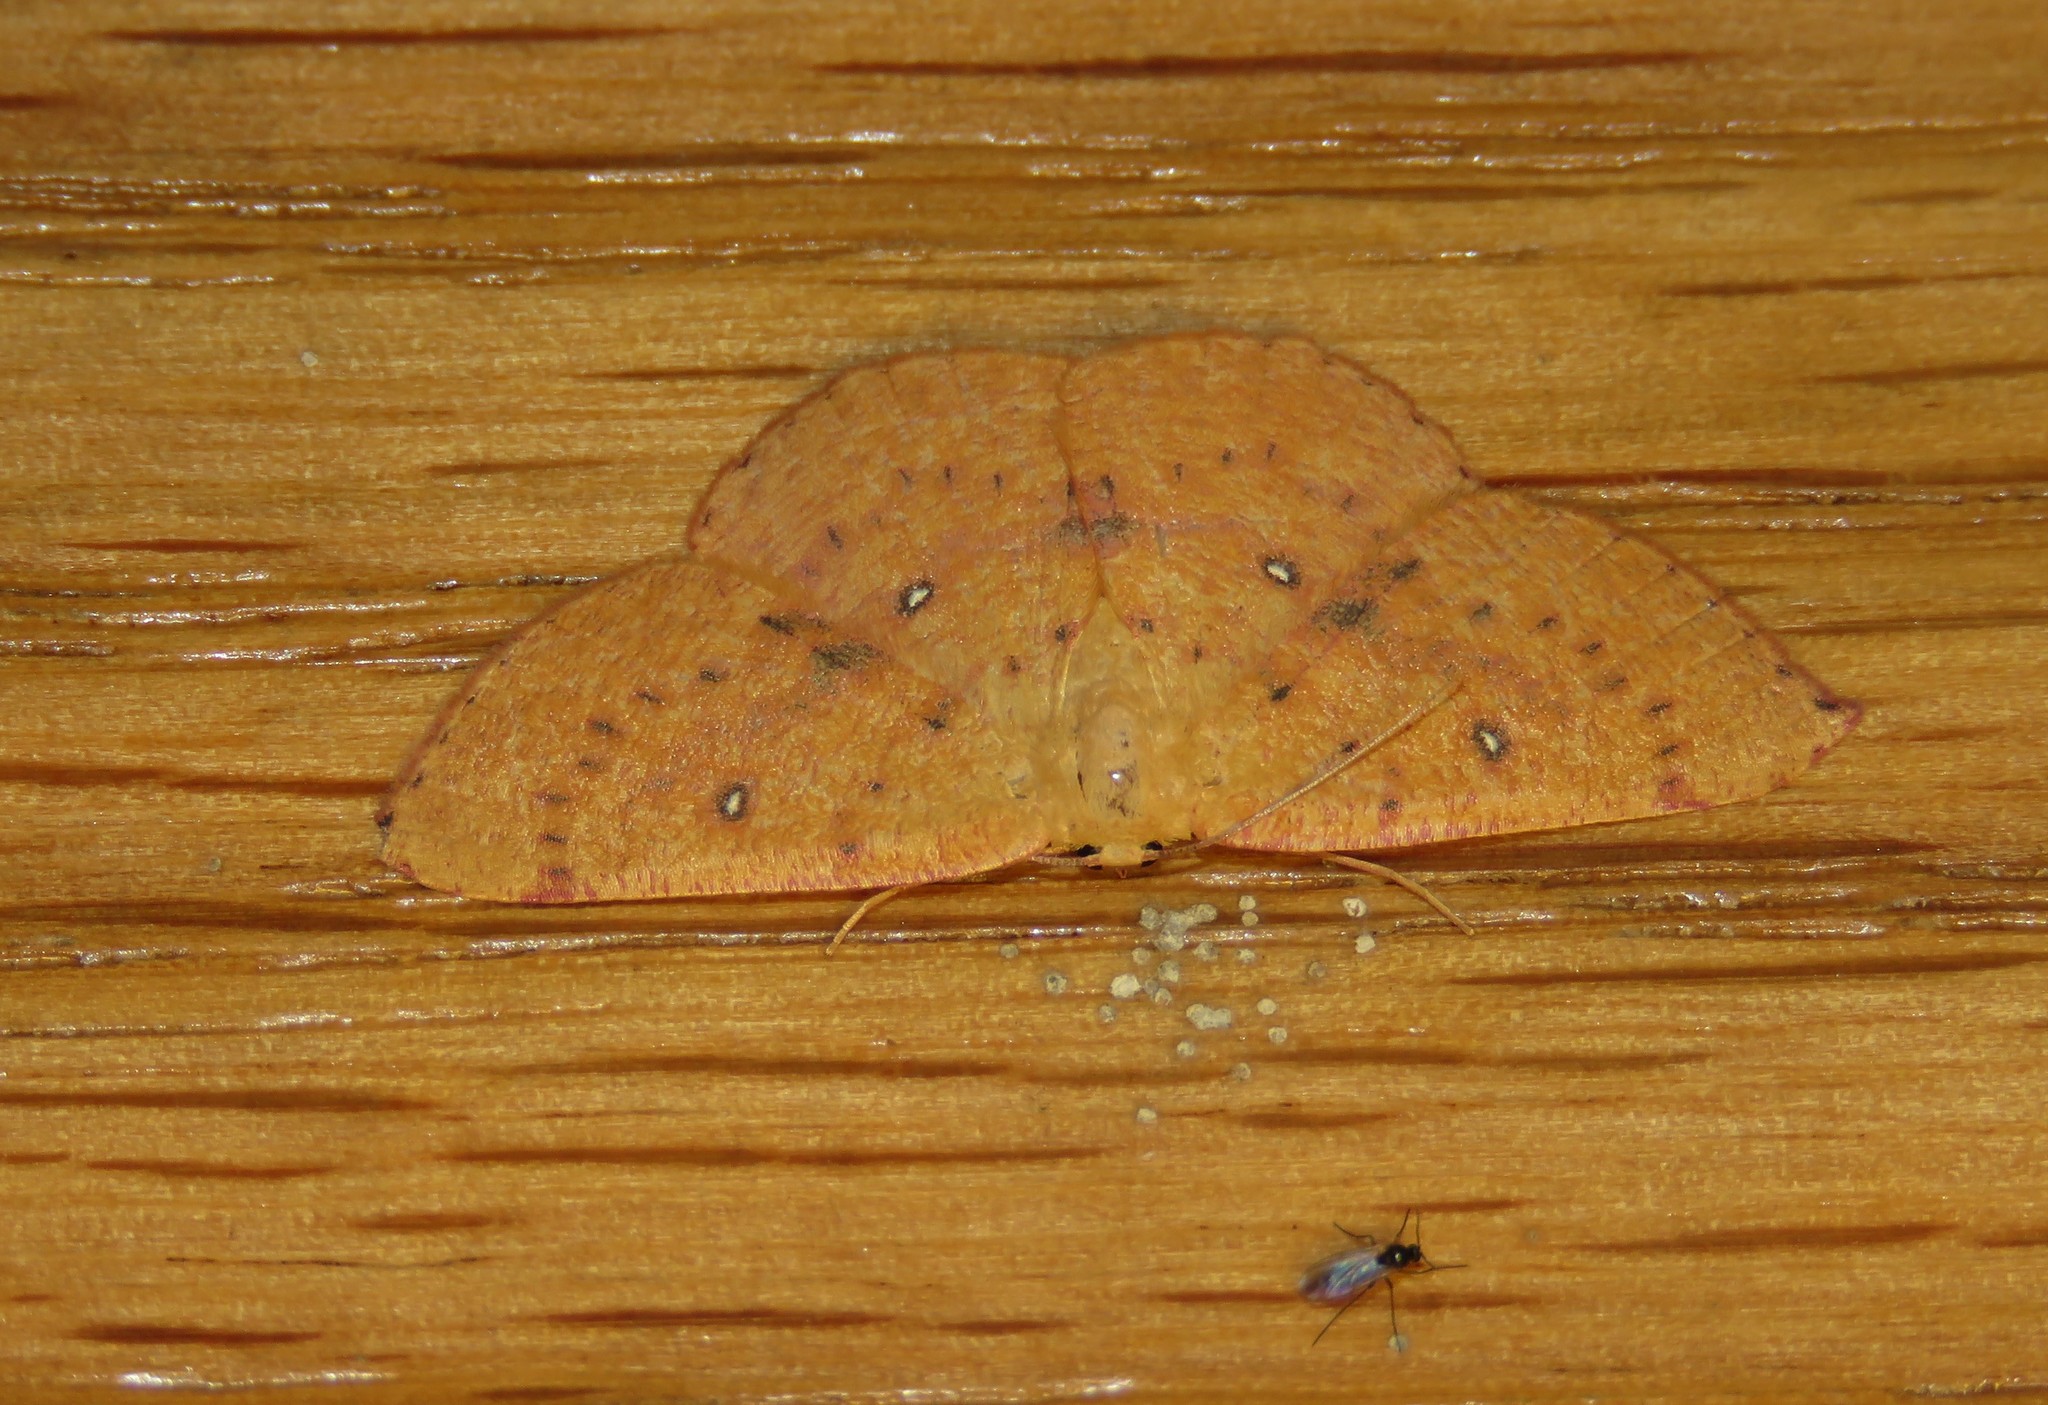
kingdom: Animalia
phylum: Arthropoda
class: Insecta
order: Lepidoptera
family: Geometridae
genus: Cyclophora
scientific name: Cyclophora puppillaria
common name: Blair's mocha
